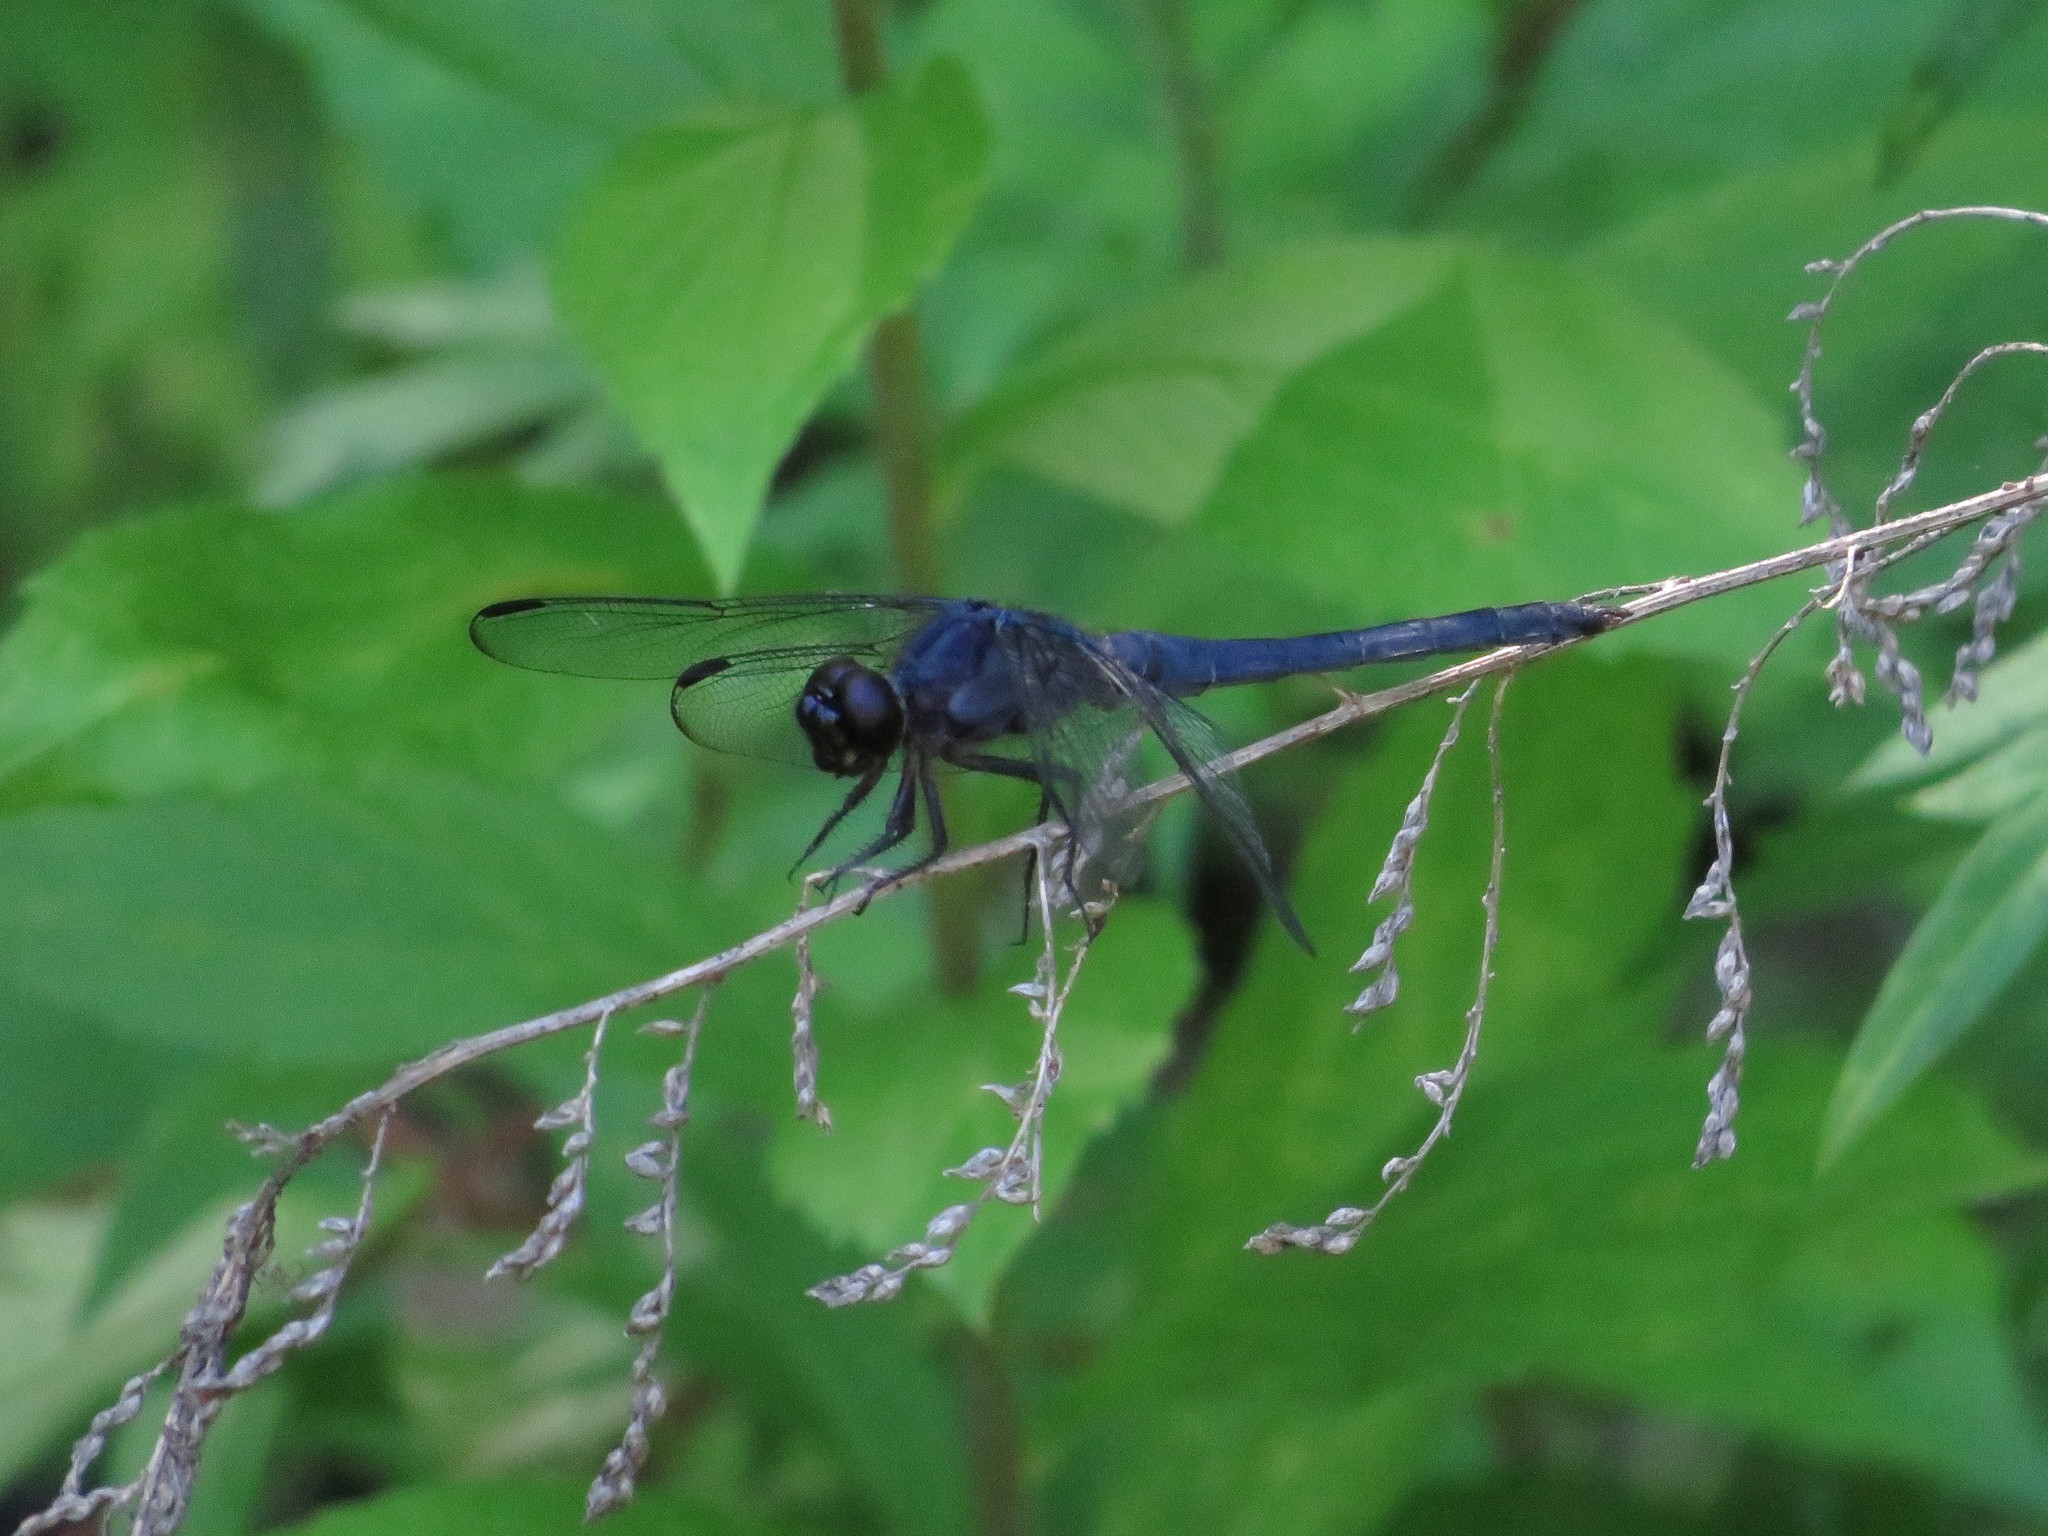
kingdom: Animalia
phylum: Arthropoda
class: Insecta
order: Odonata
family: Libellulidae
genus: Libellula
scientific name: Libellula incesta
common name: Slaty skimmer
